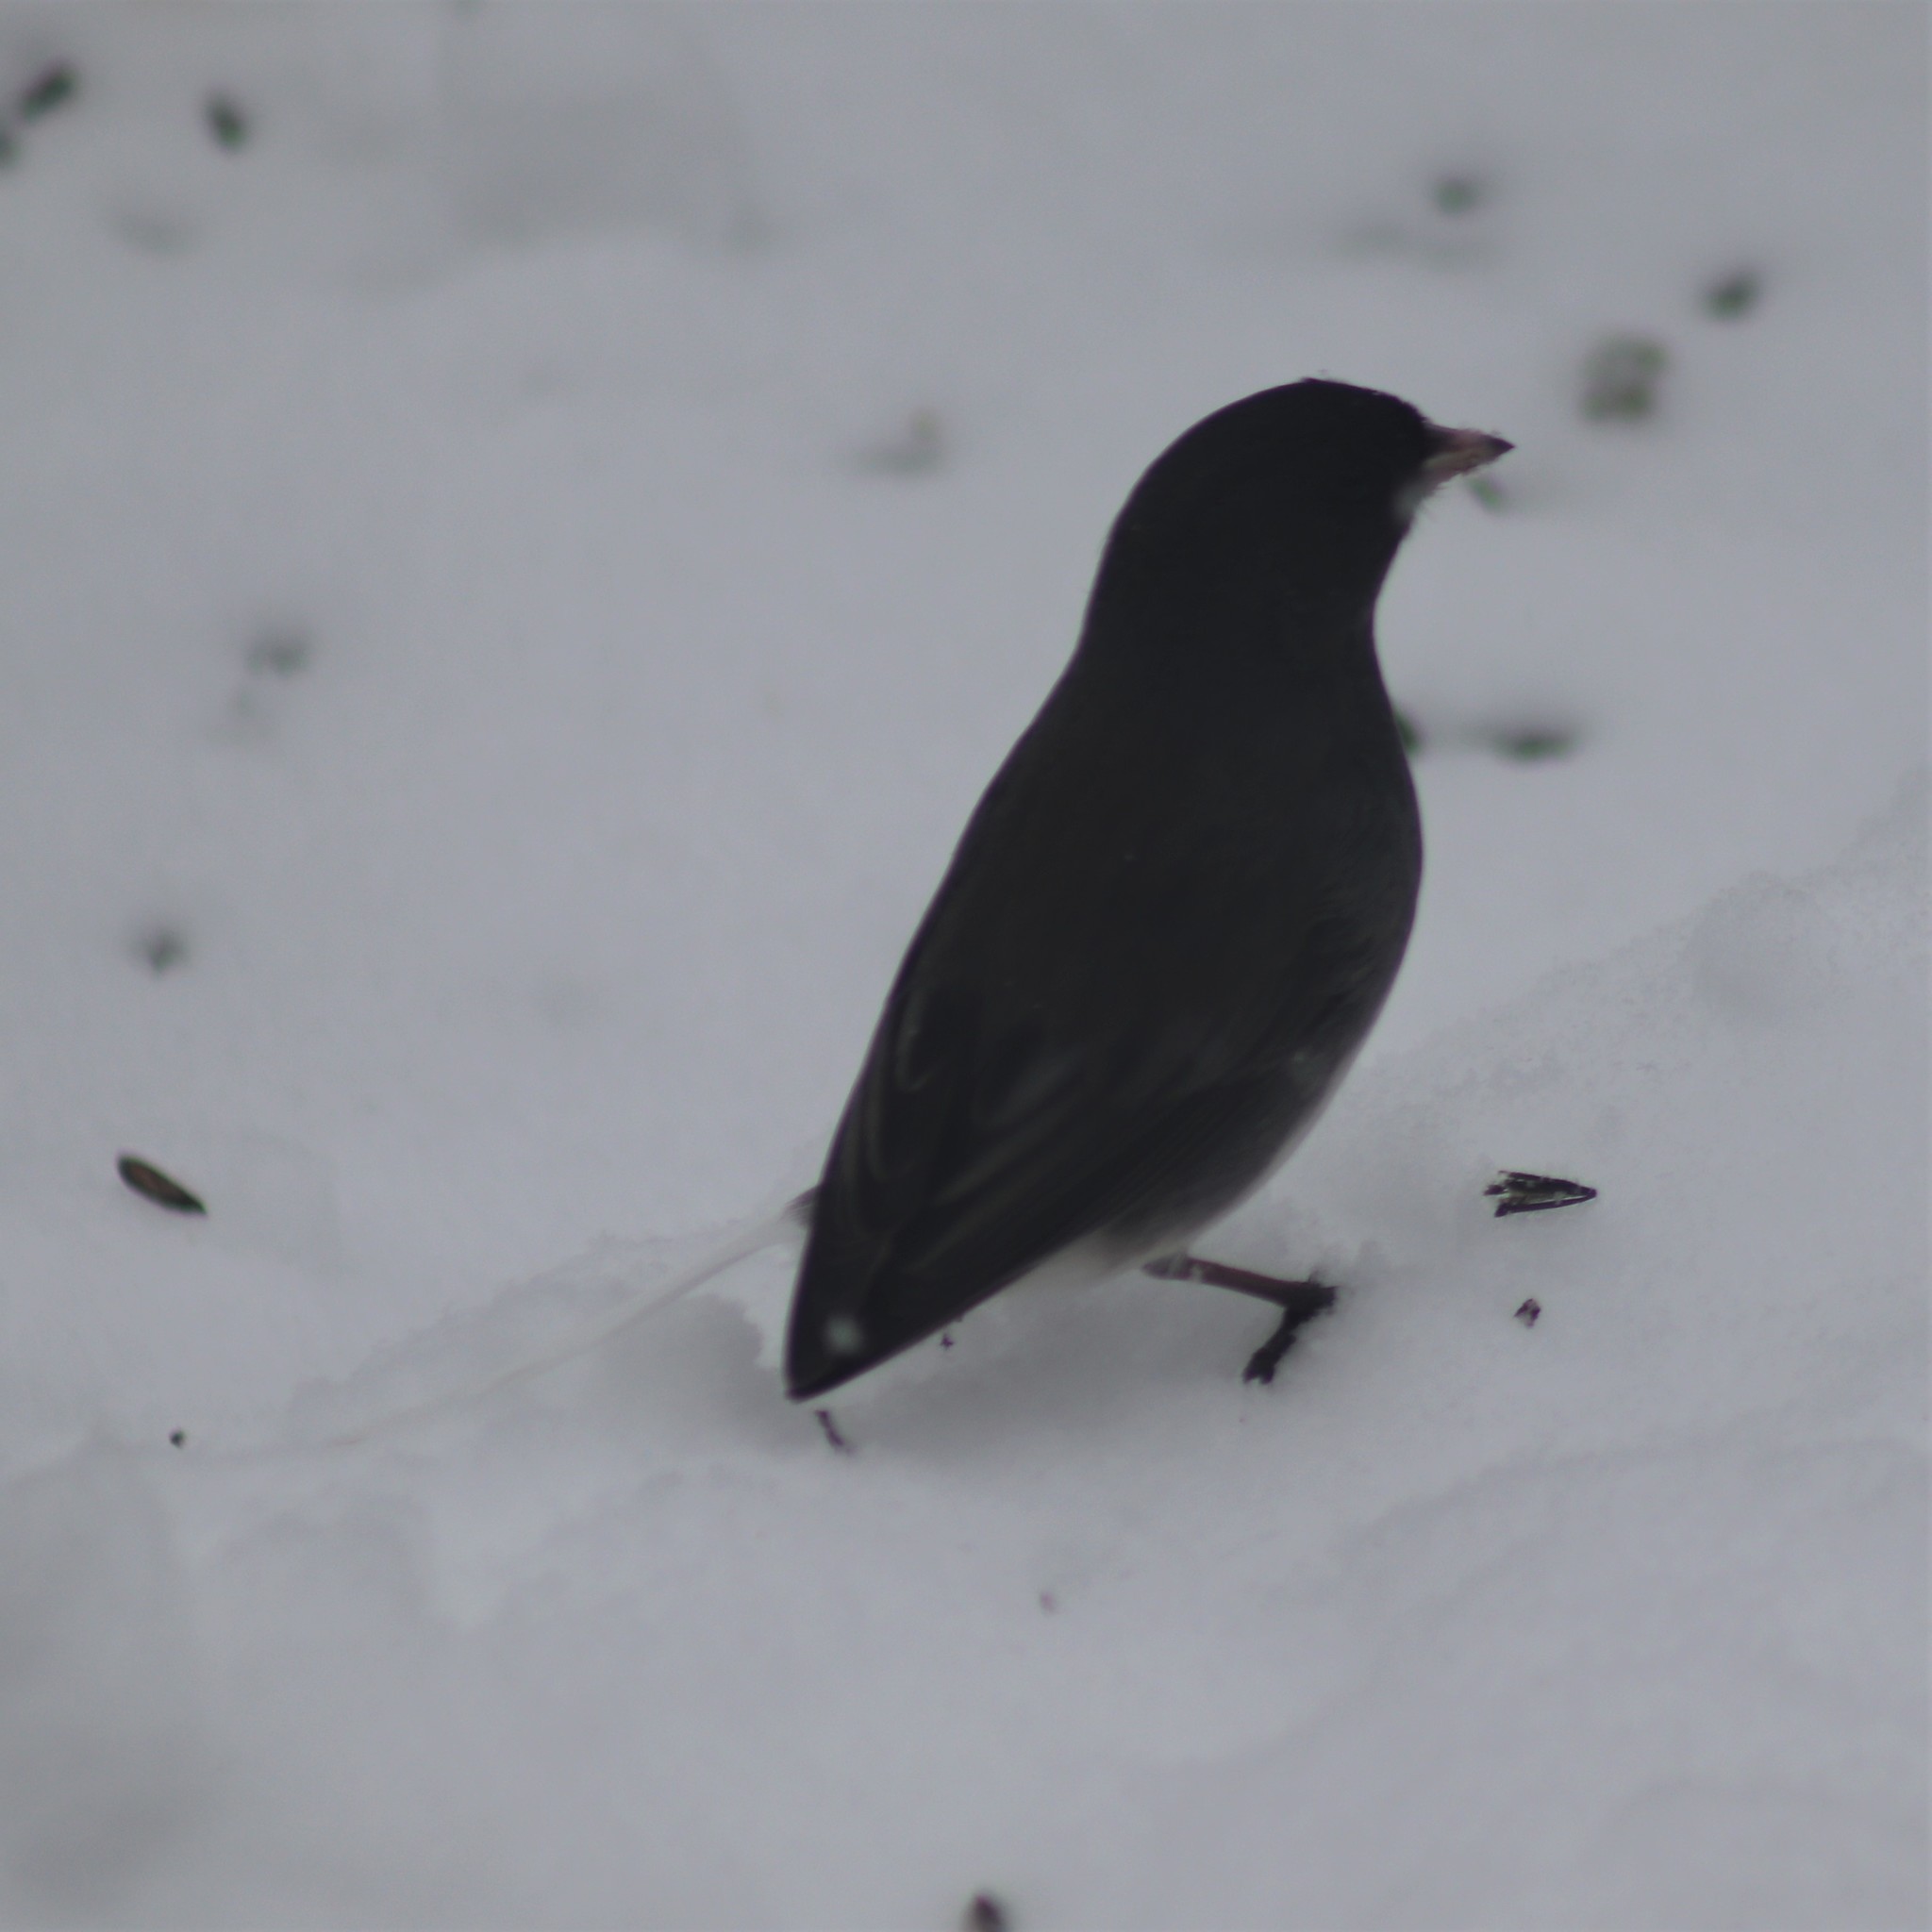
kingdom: Animalia
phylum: Chordata
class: Aves
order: Passeriformes
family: Passerellidae
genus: Junco
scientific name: Junco hyemalis
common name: Dark-eyed junco
